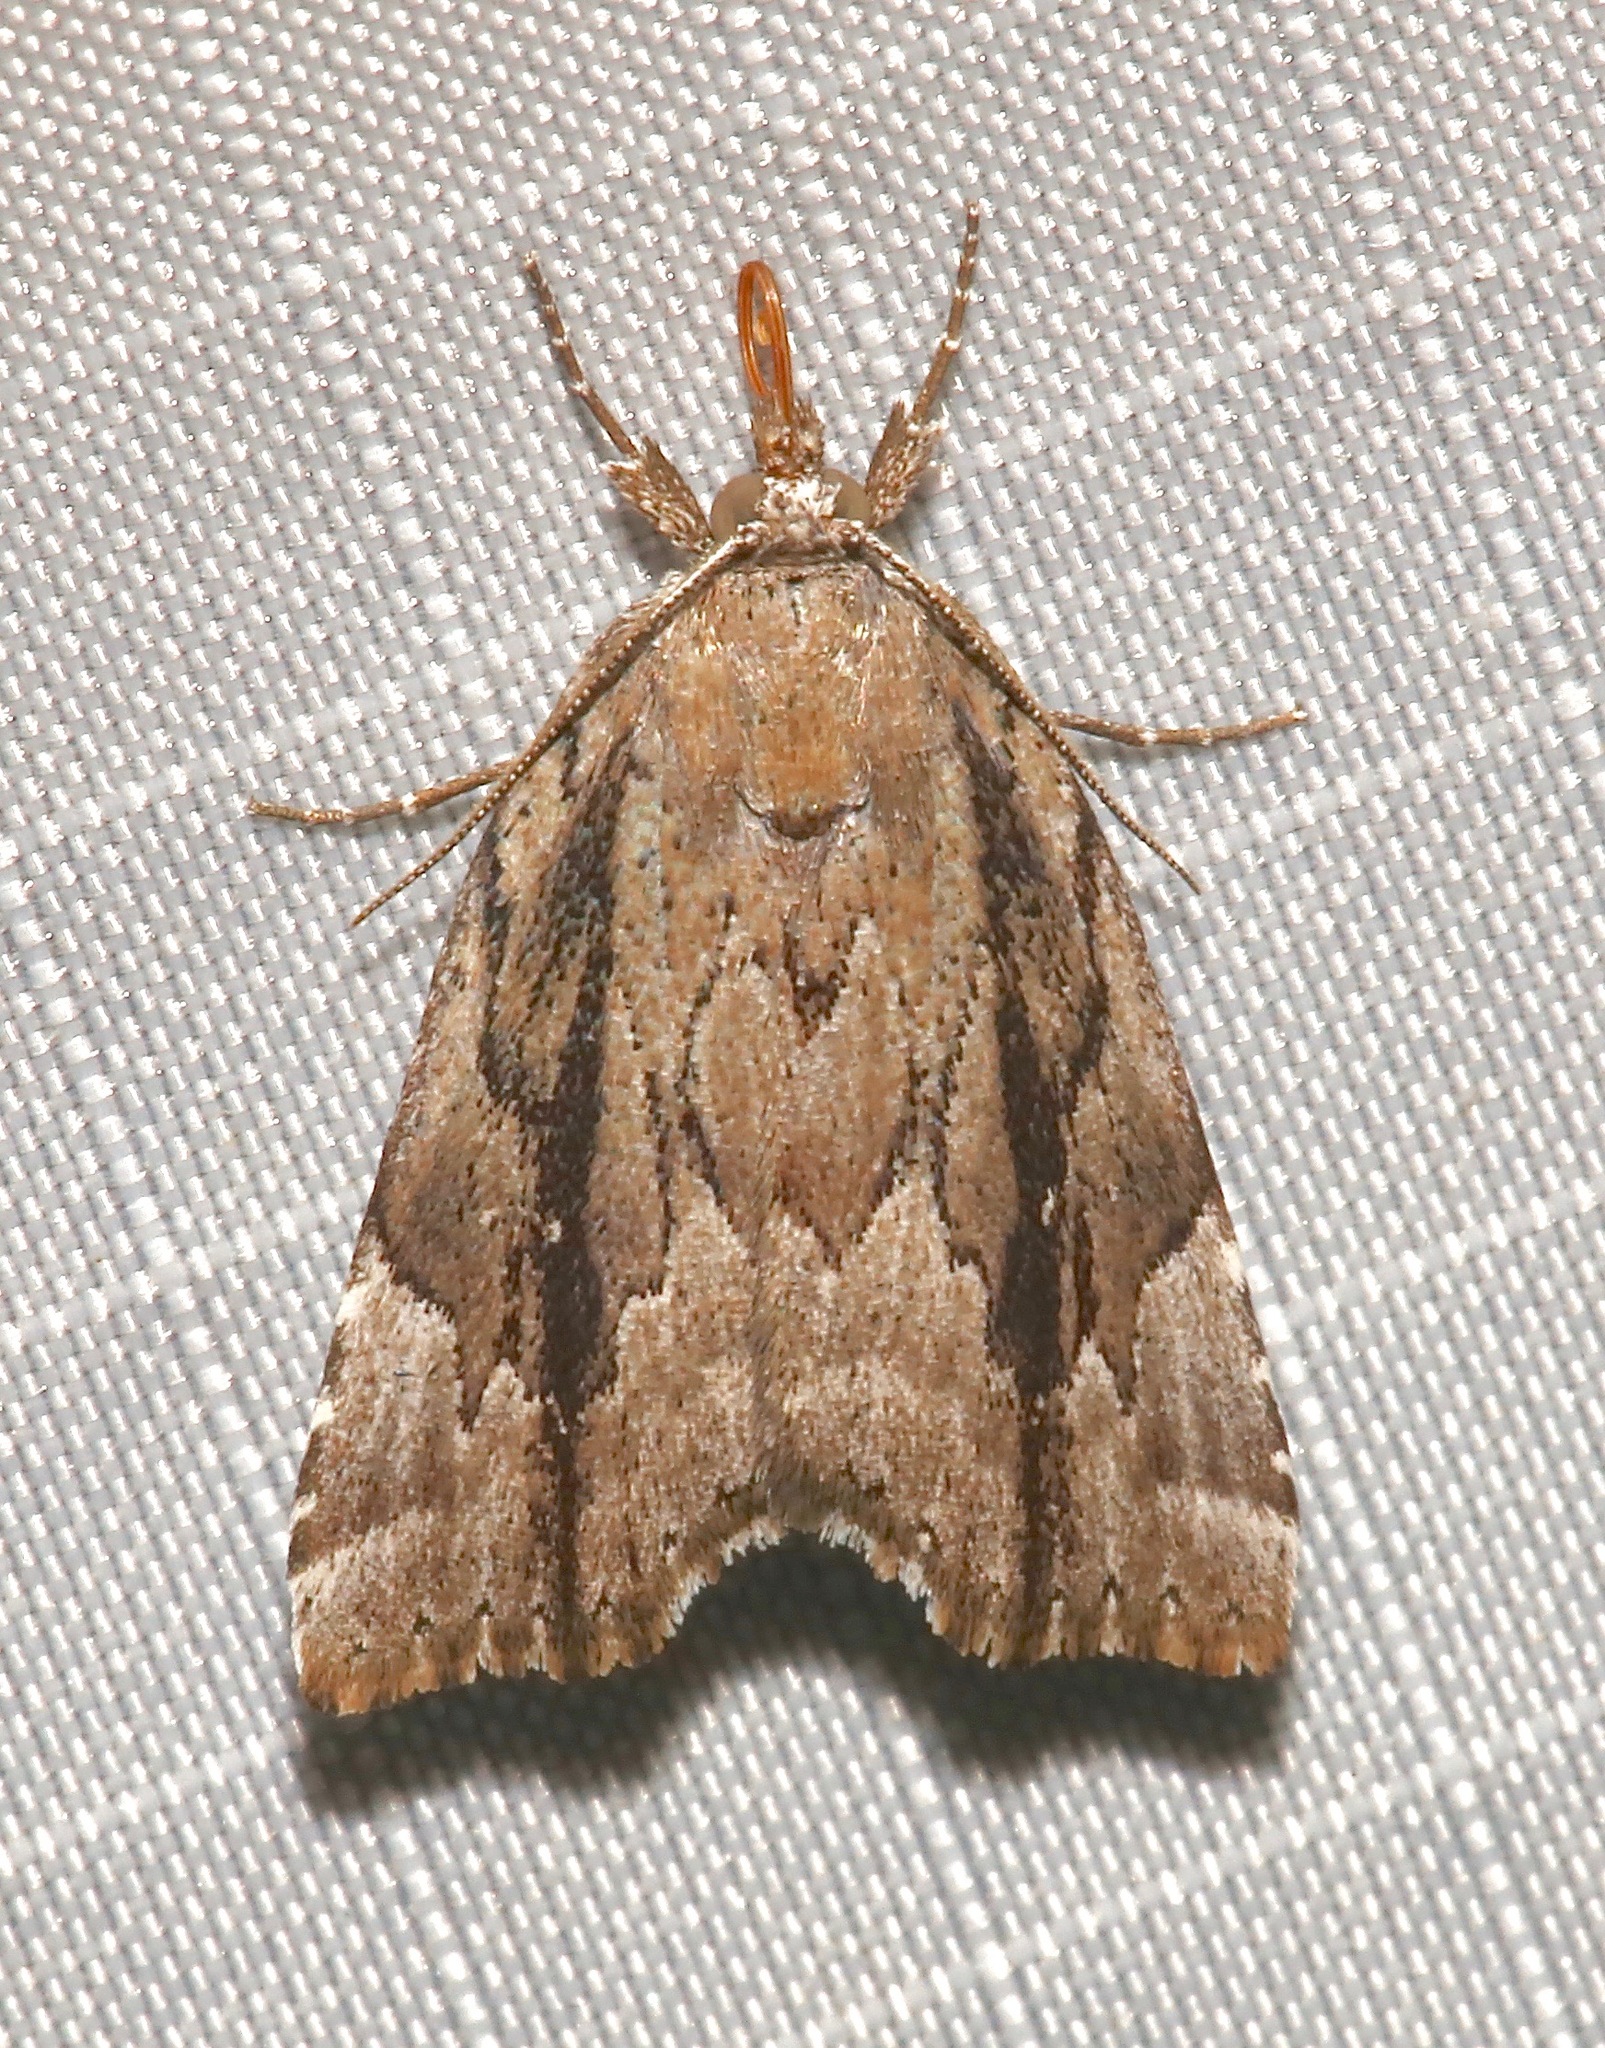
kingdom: Animalia
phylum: Arthropoda
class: Insecta
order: Lepidoptera
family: Erebidae
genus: Cutina
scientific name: Cutina albopunctella
